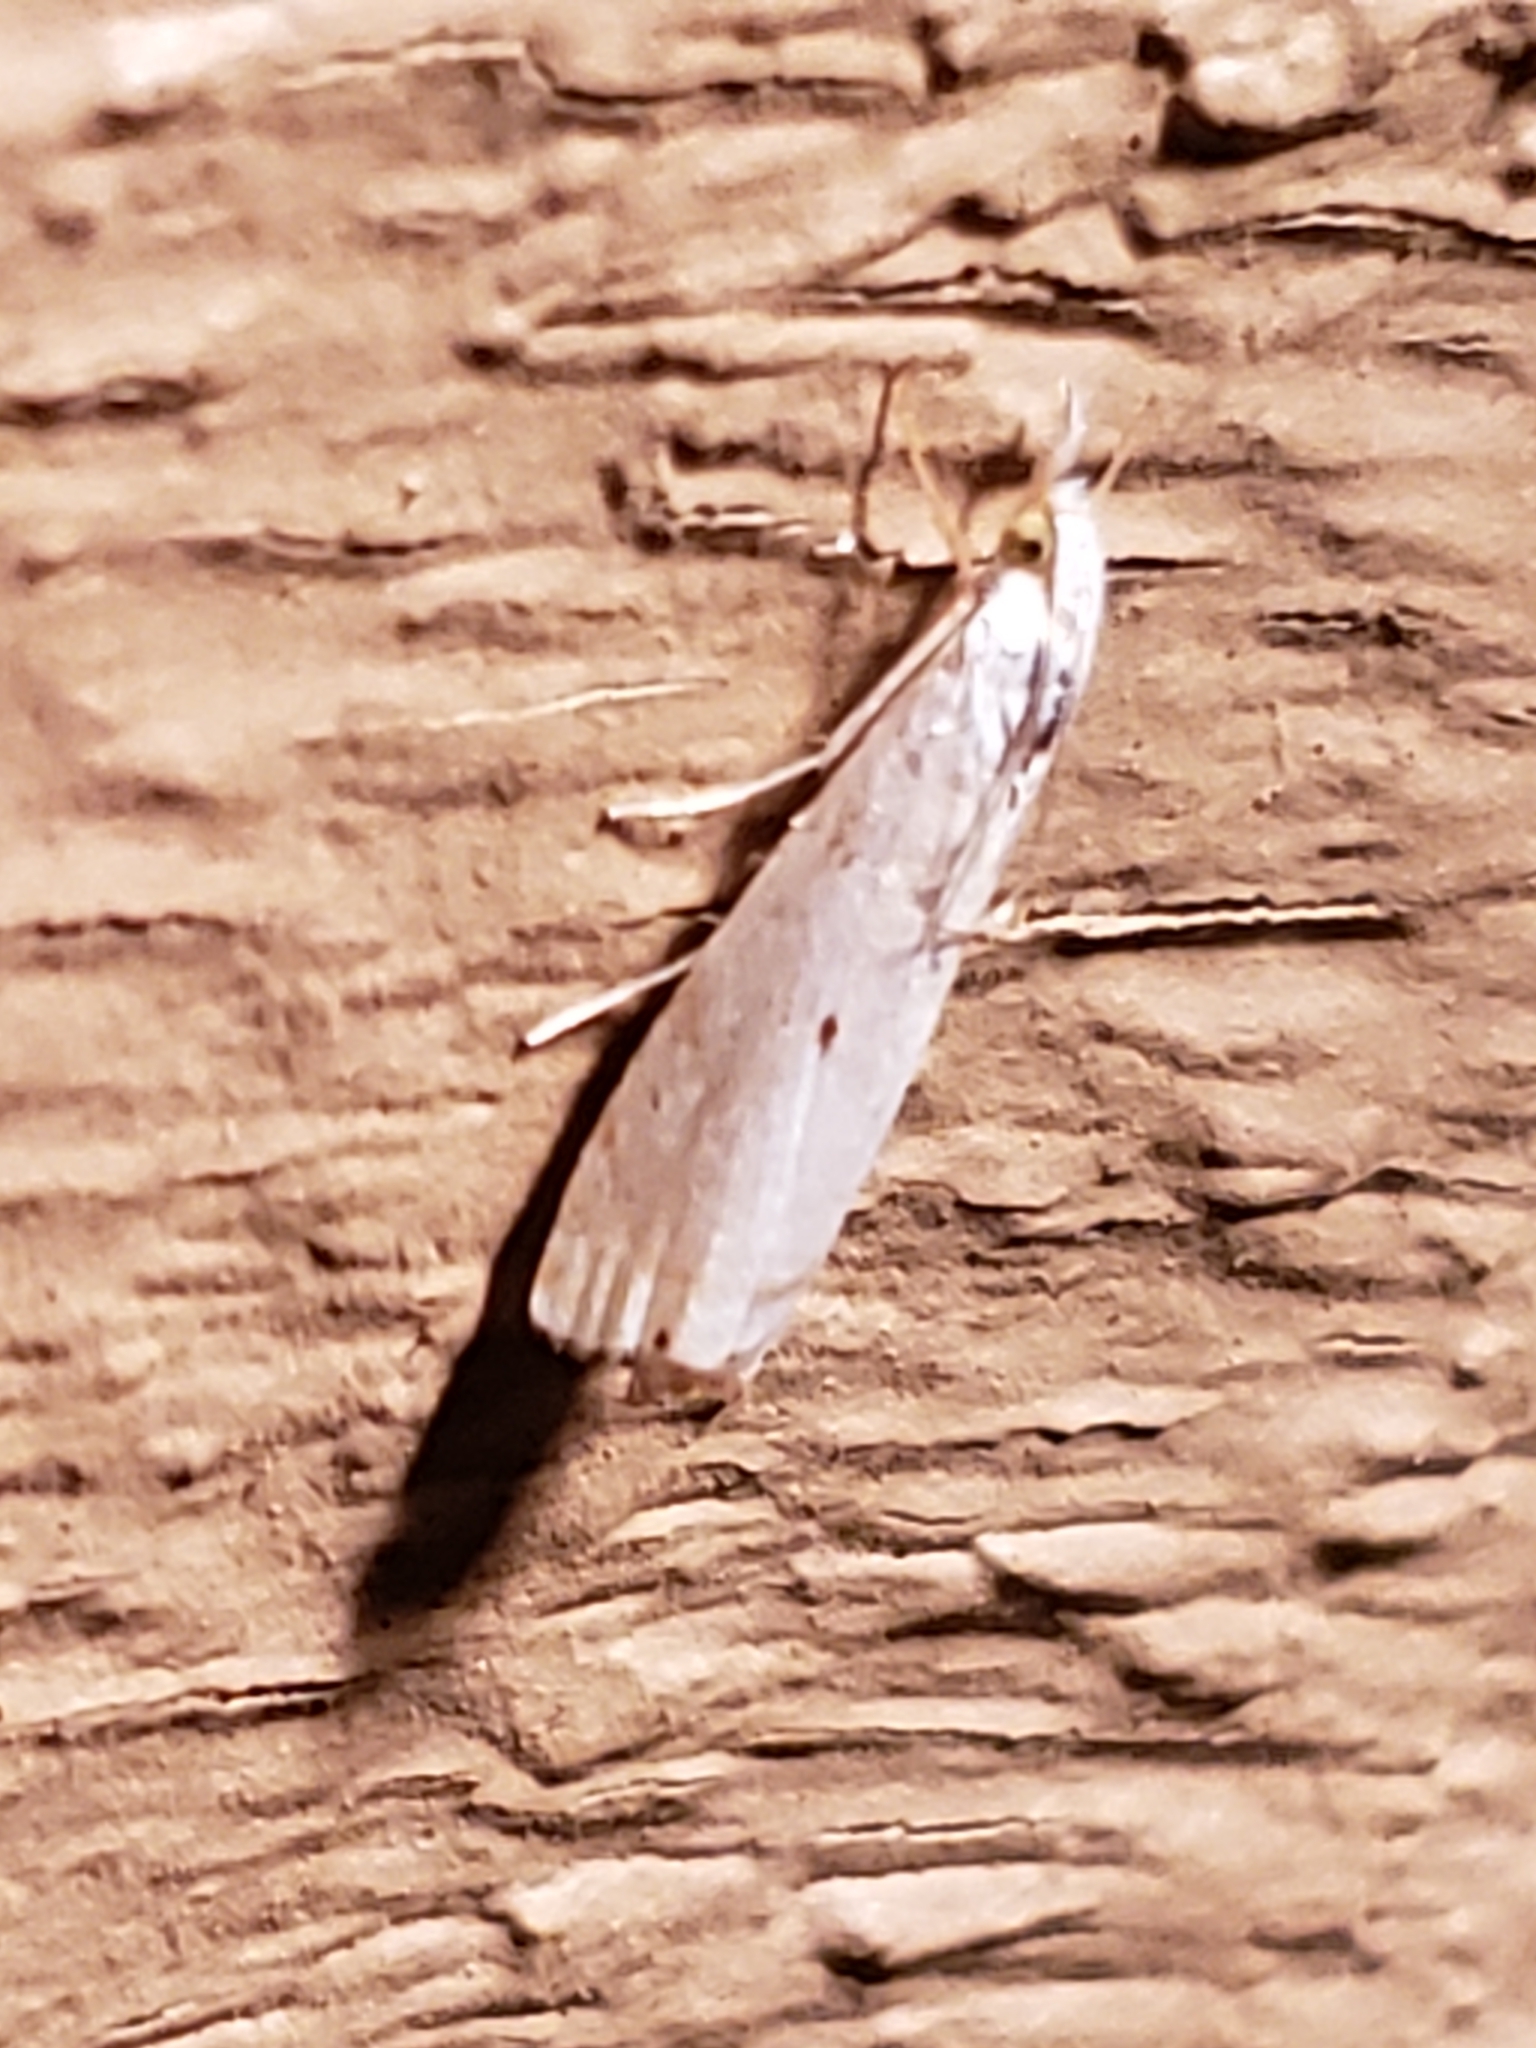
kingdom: Animalia
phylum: Arthropoda
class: Insecta
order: Lepidoptera
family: Crambidae
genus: Microcrambus
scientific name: Microcrambus biguttellus
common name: Gold-stripe grass-veneer moth
